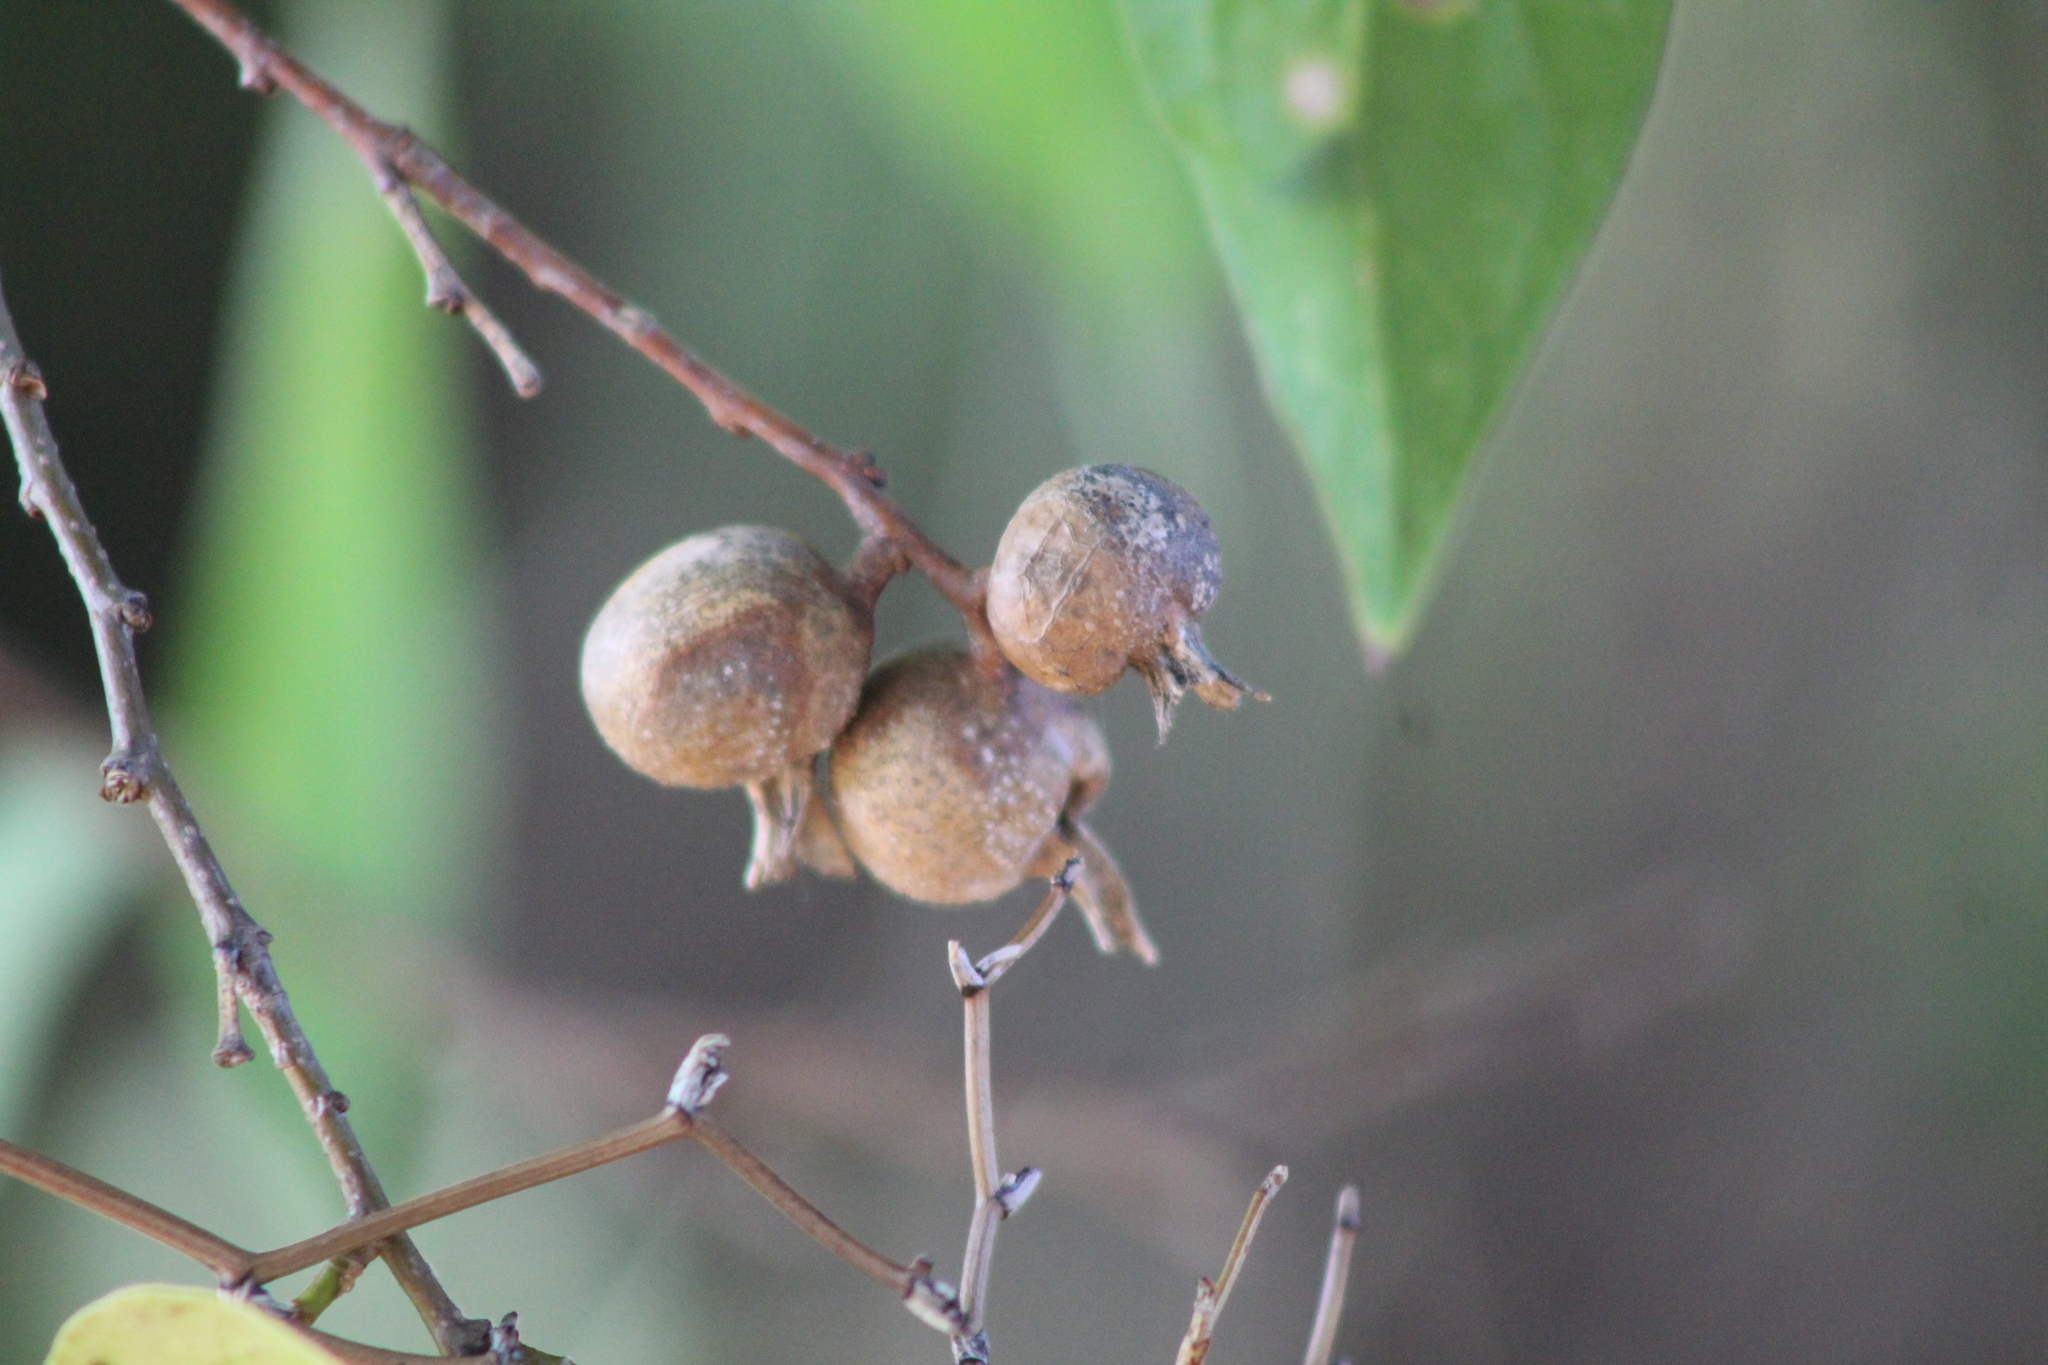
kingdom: Animalia
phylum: Arthropoda
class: Insecta
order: Hemiptera
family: Aphalaridae
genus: Pachypsylla
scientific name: Pachypsylla venusta
